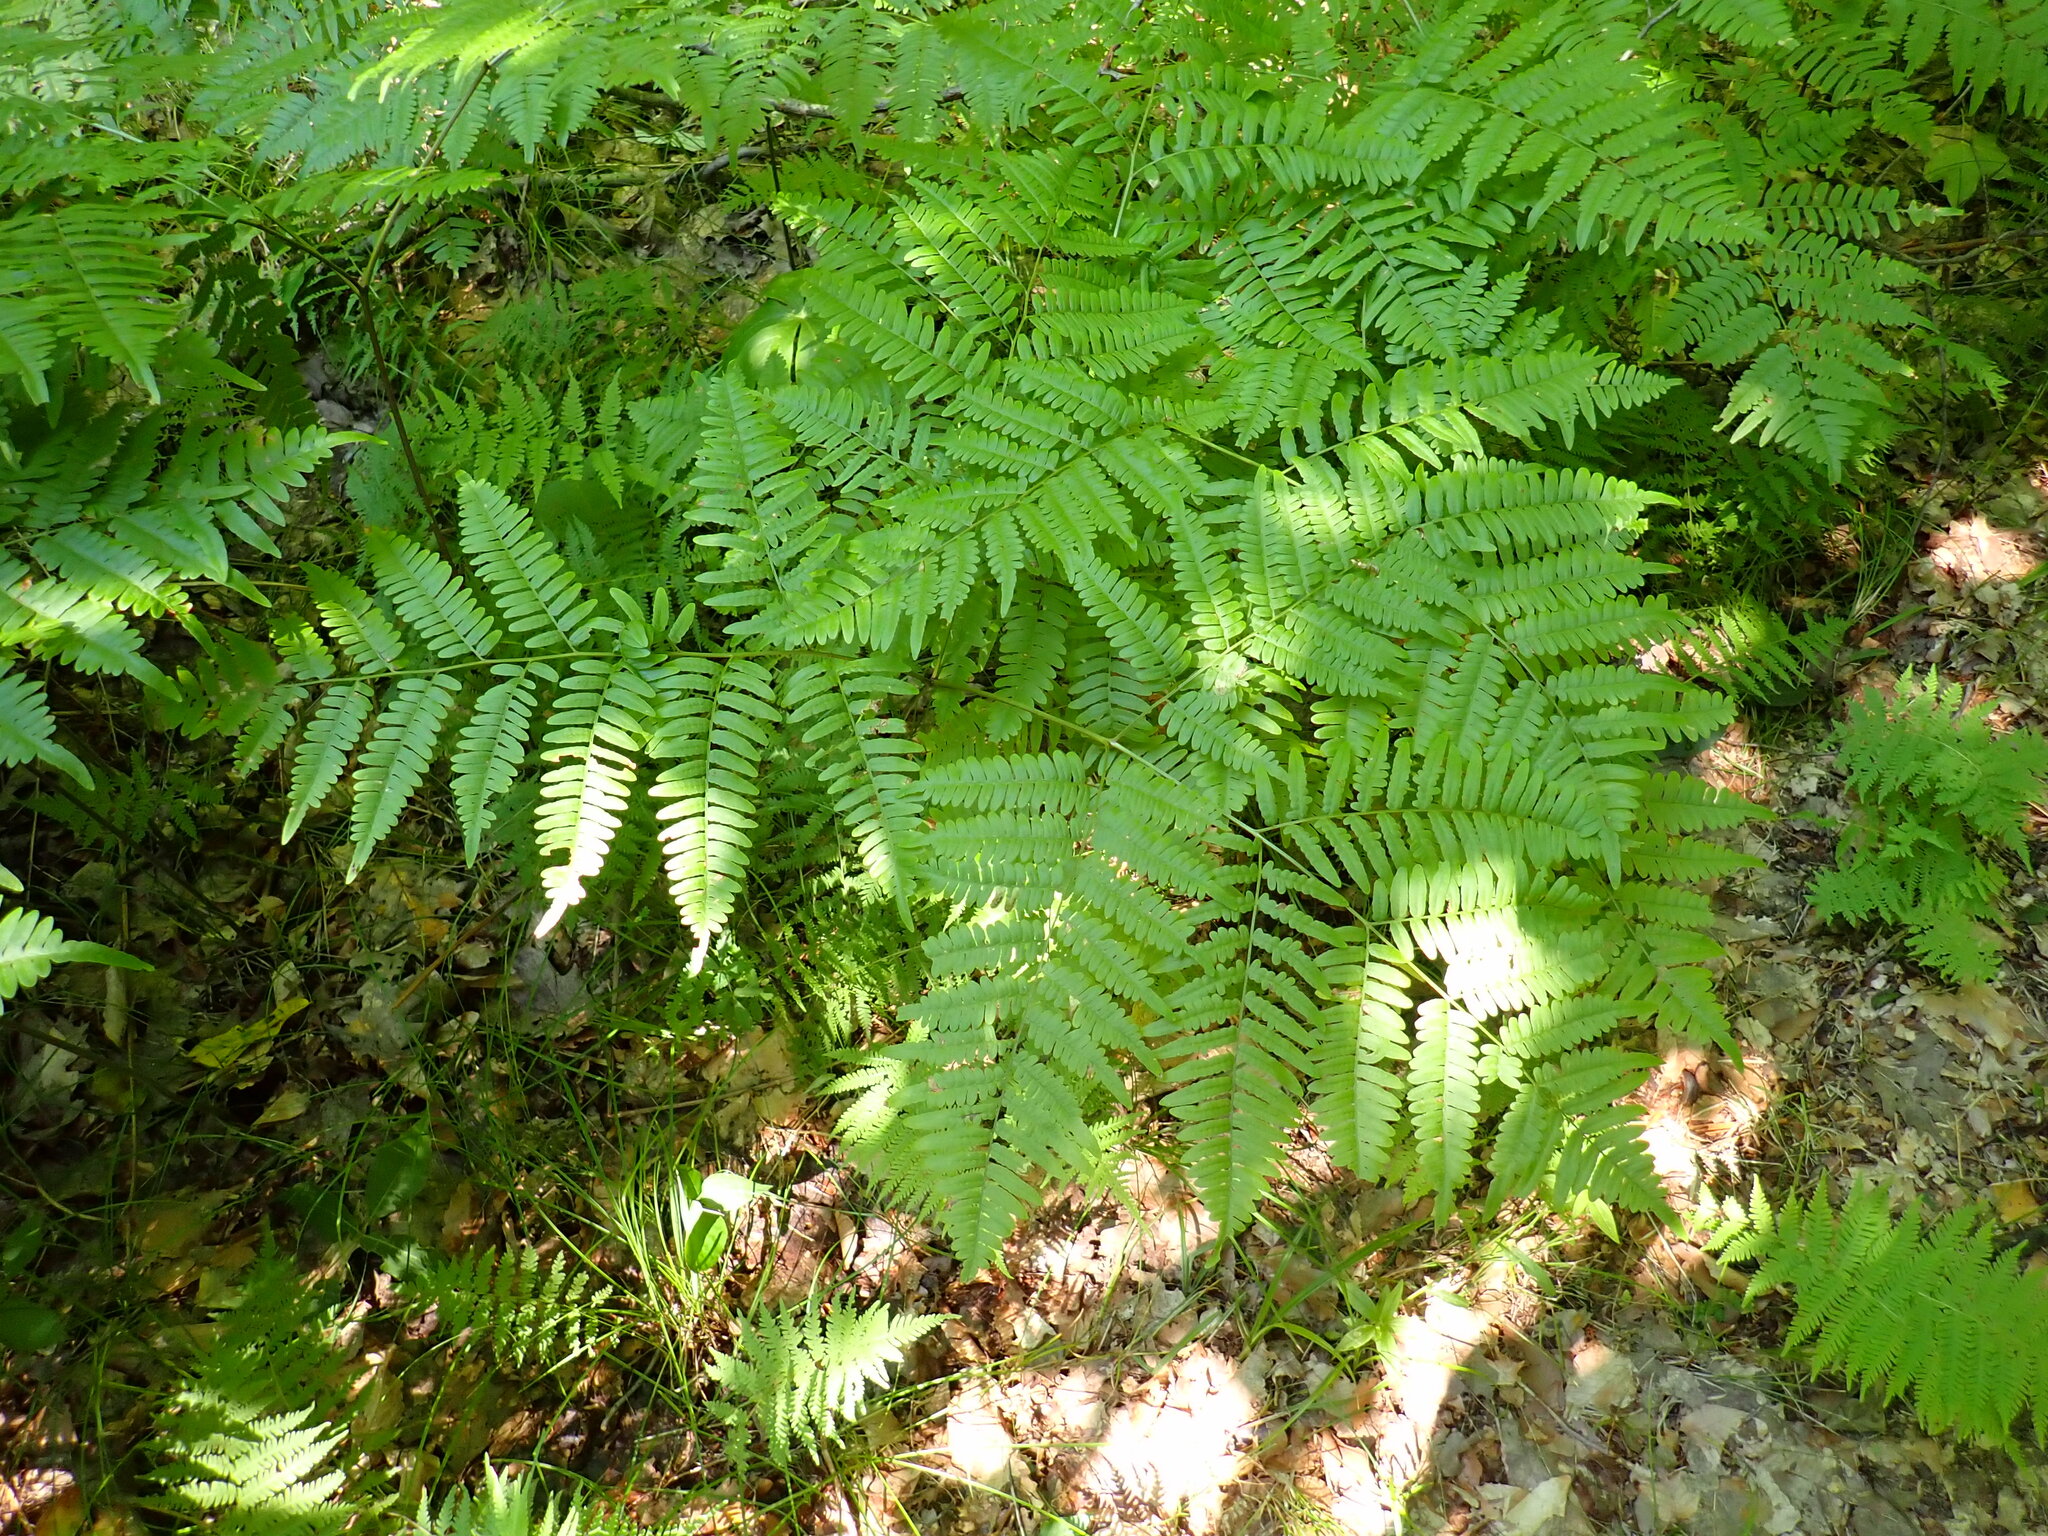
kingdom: Plantae
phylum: Tracheophyta
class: Polypodiopsida
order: Polypodiales
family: Dennstaedtiaceae
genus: Pteridium
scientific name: Pteridium aquilinum
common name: Bracken
